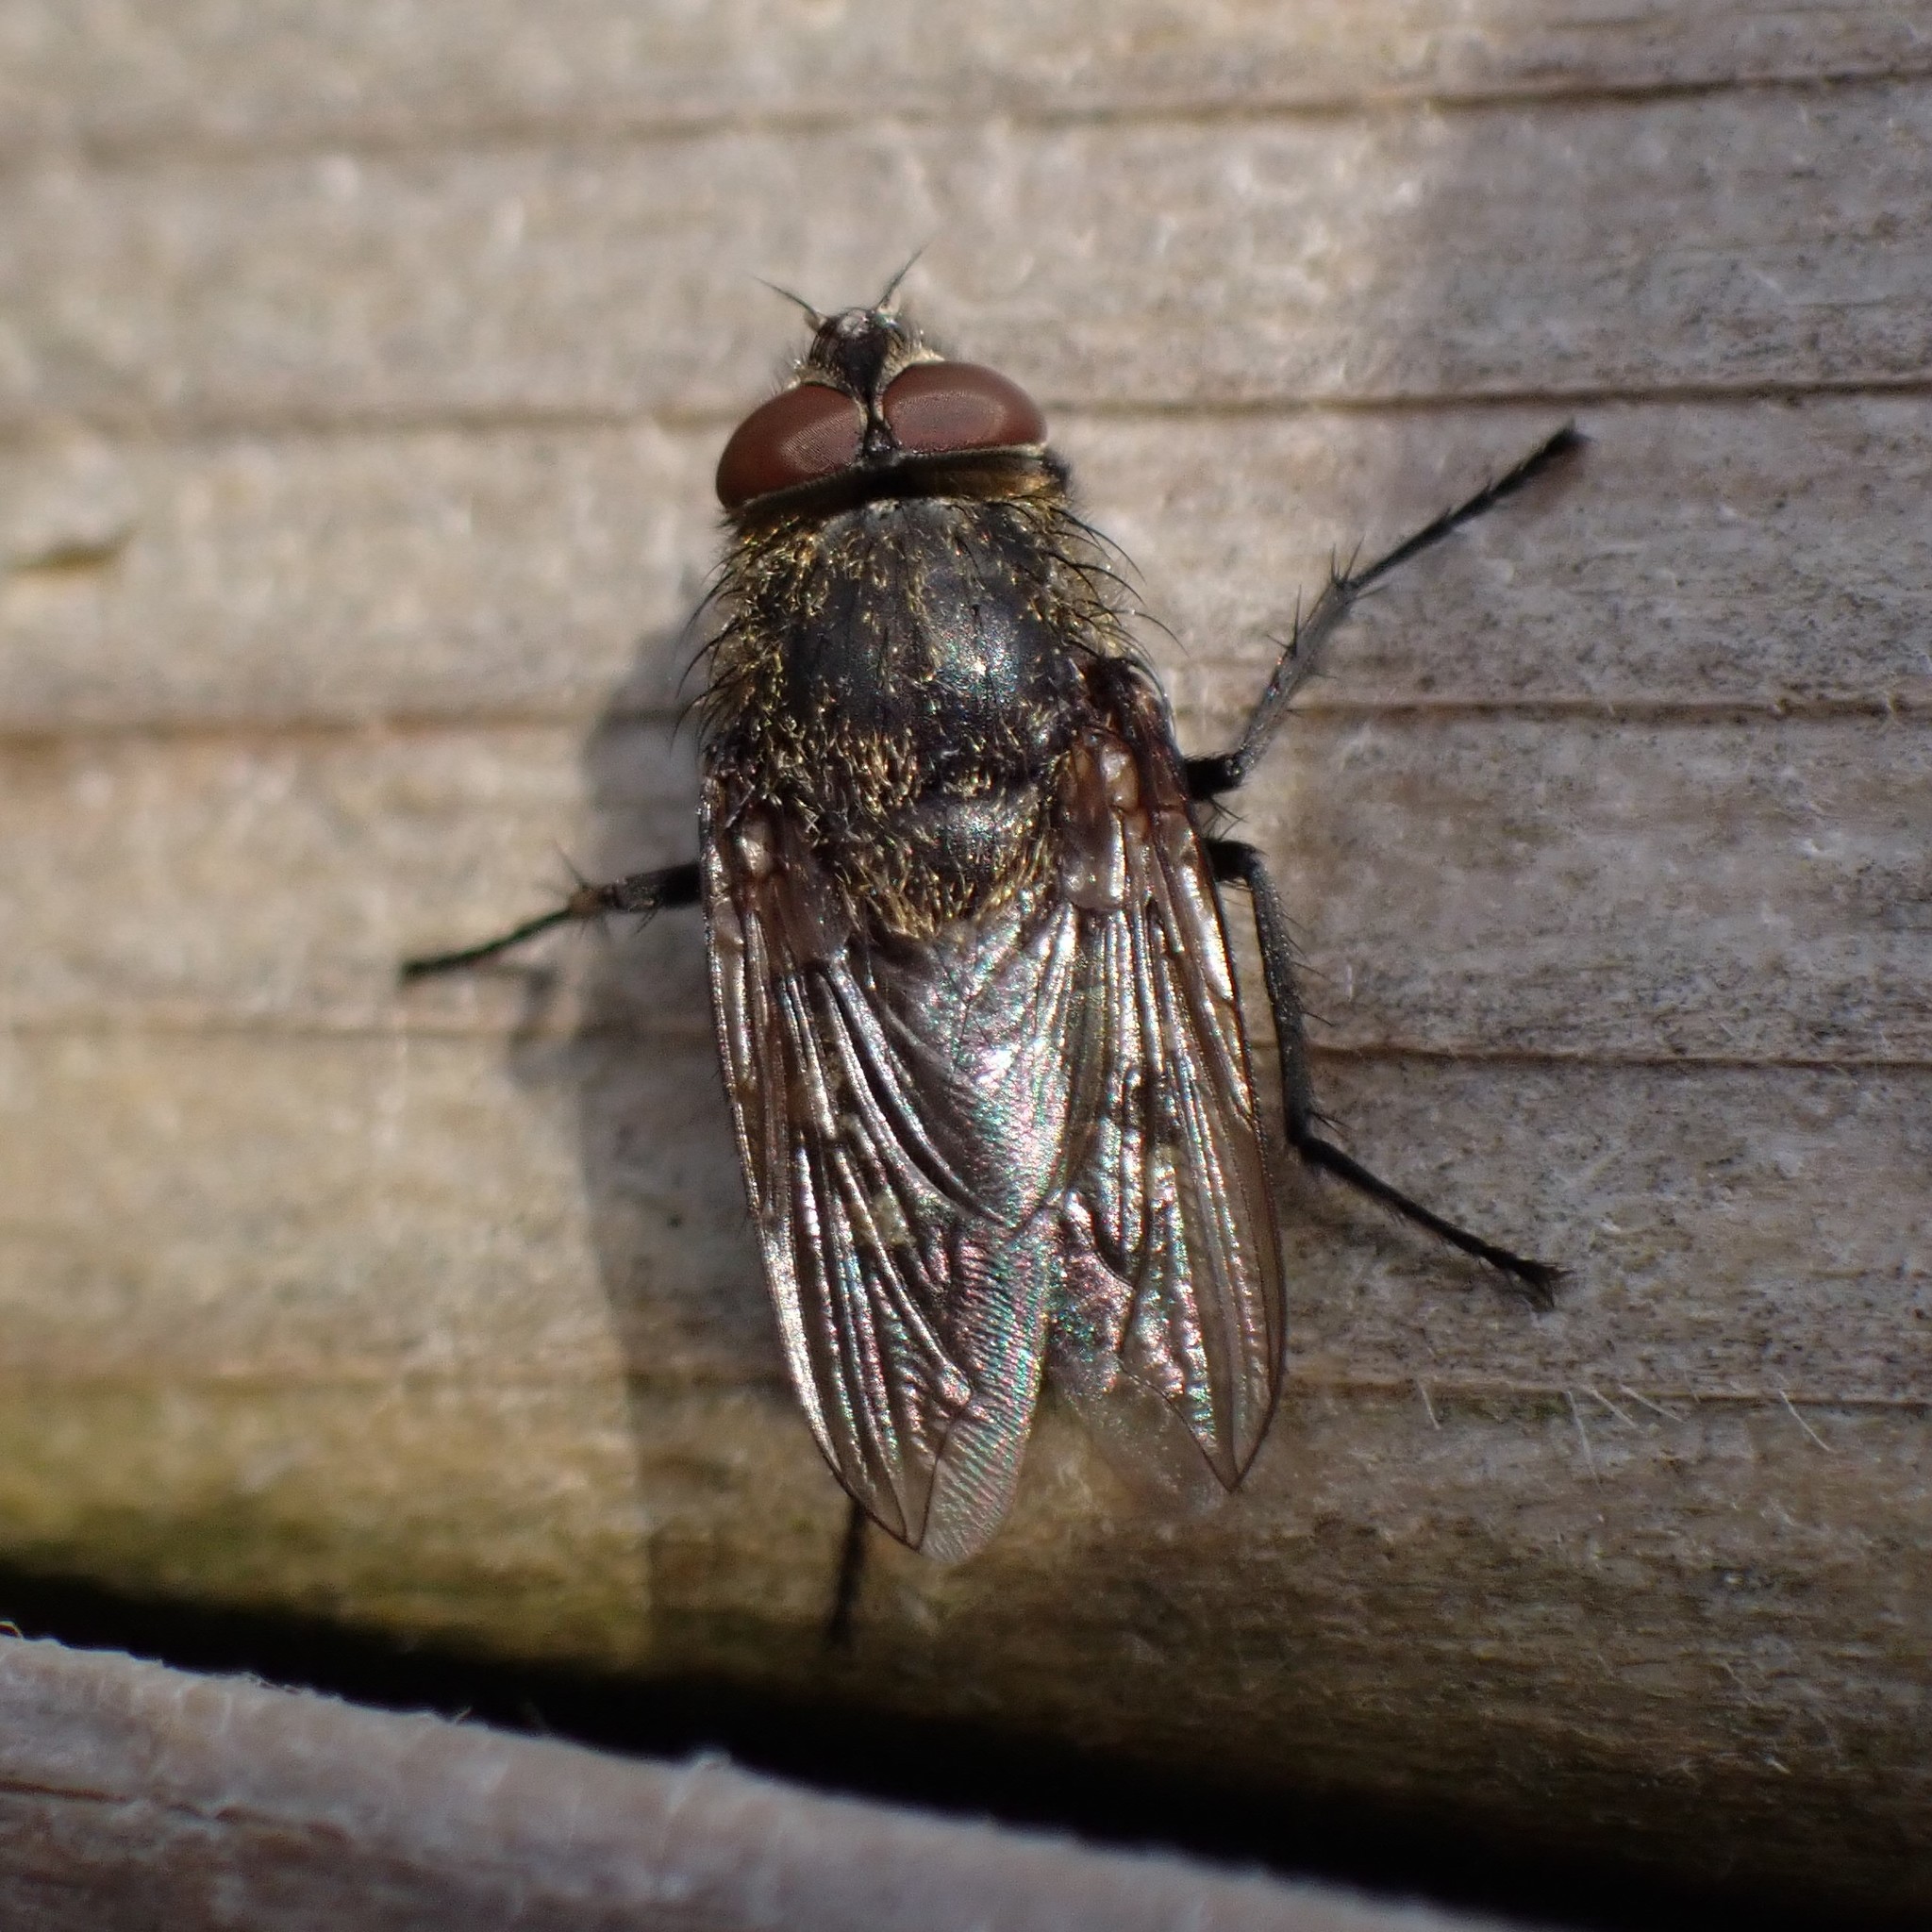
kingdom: Animalia
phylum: Arthropoda
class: Insecta
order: Diptera
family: Polleniidae
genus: Pollenia
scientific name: Pollenia
